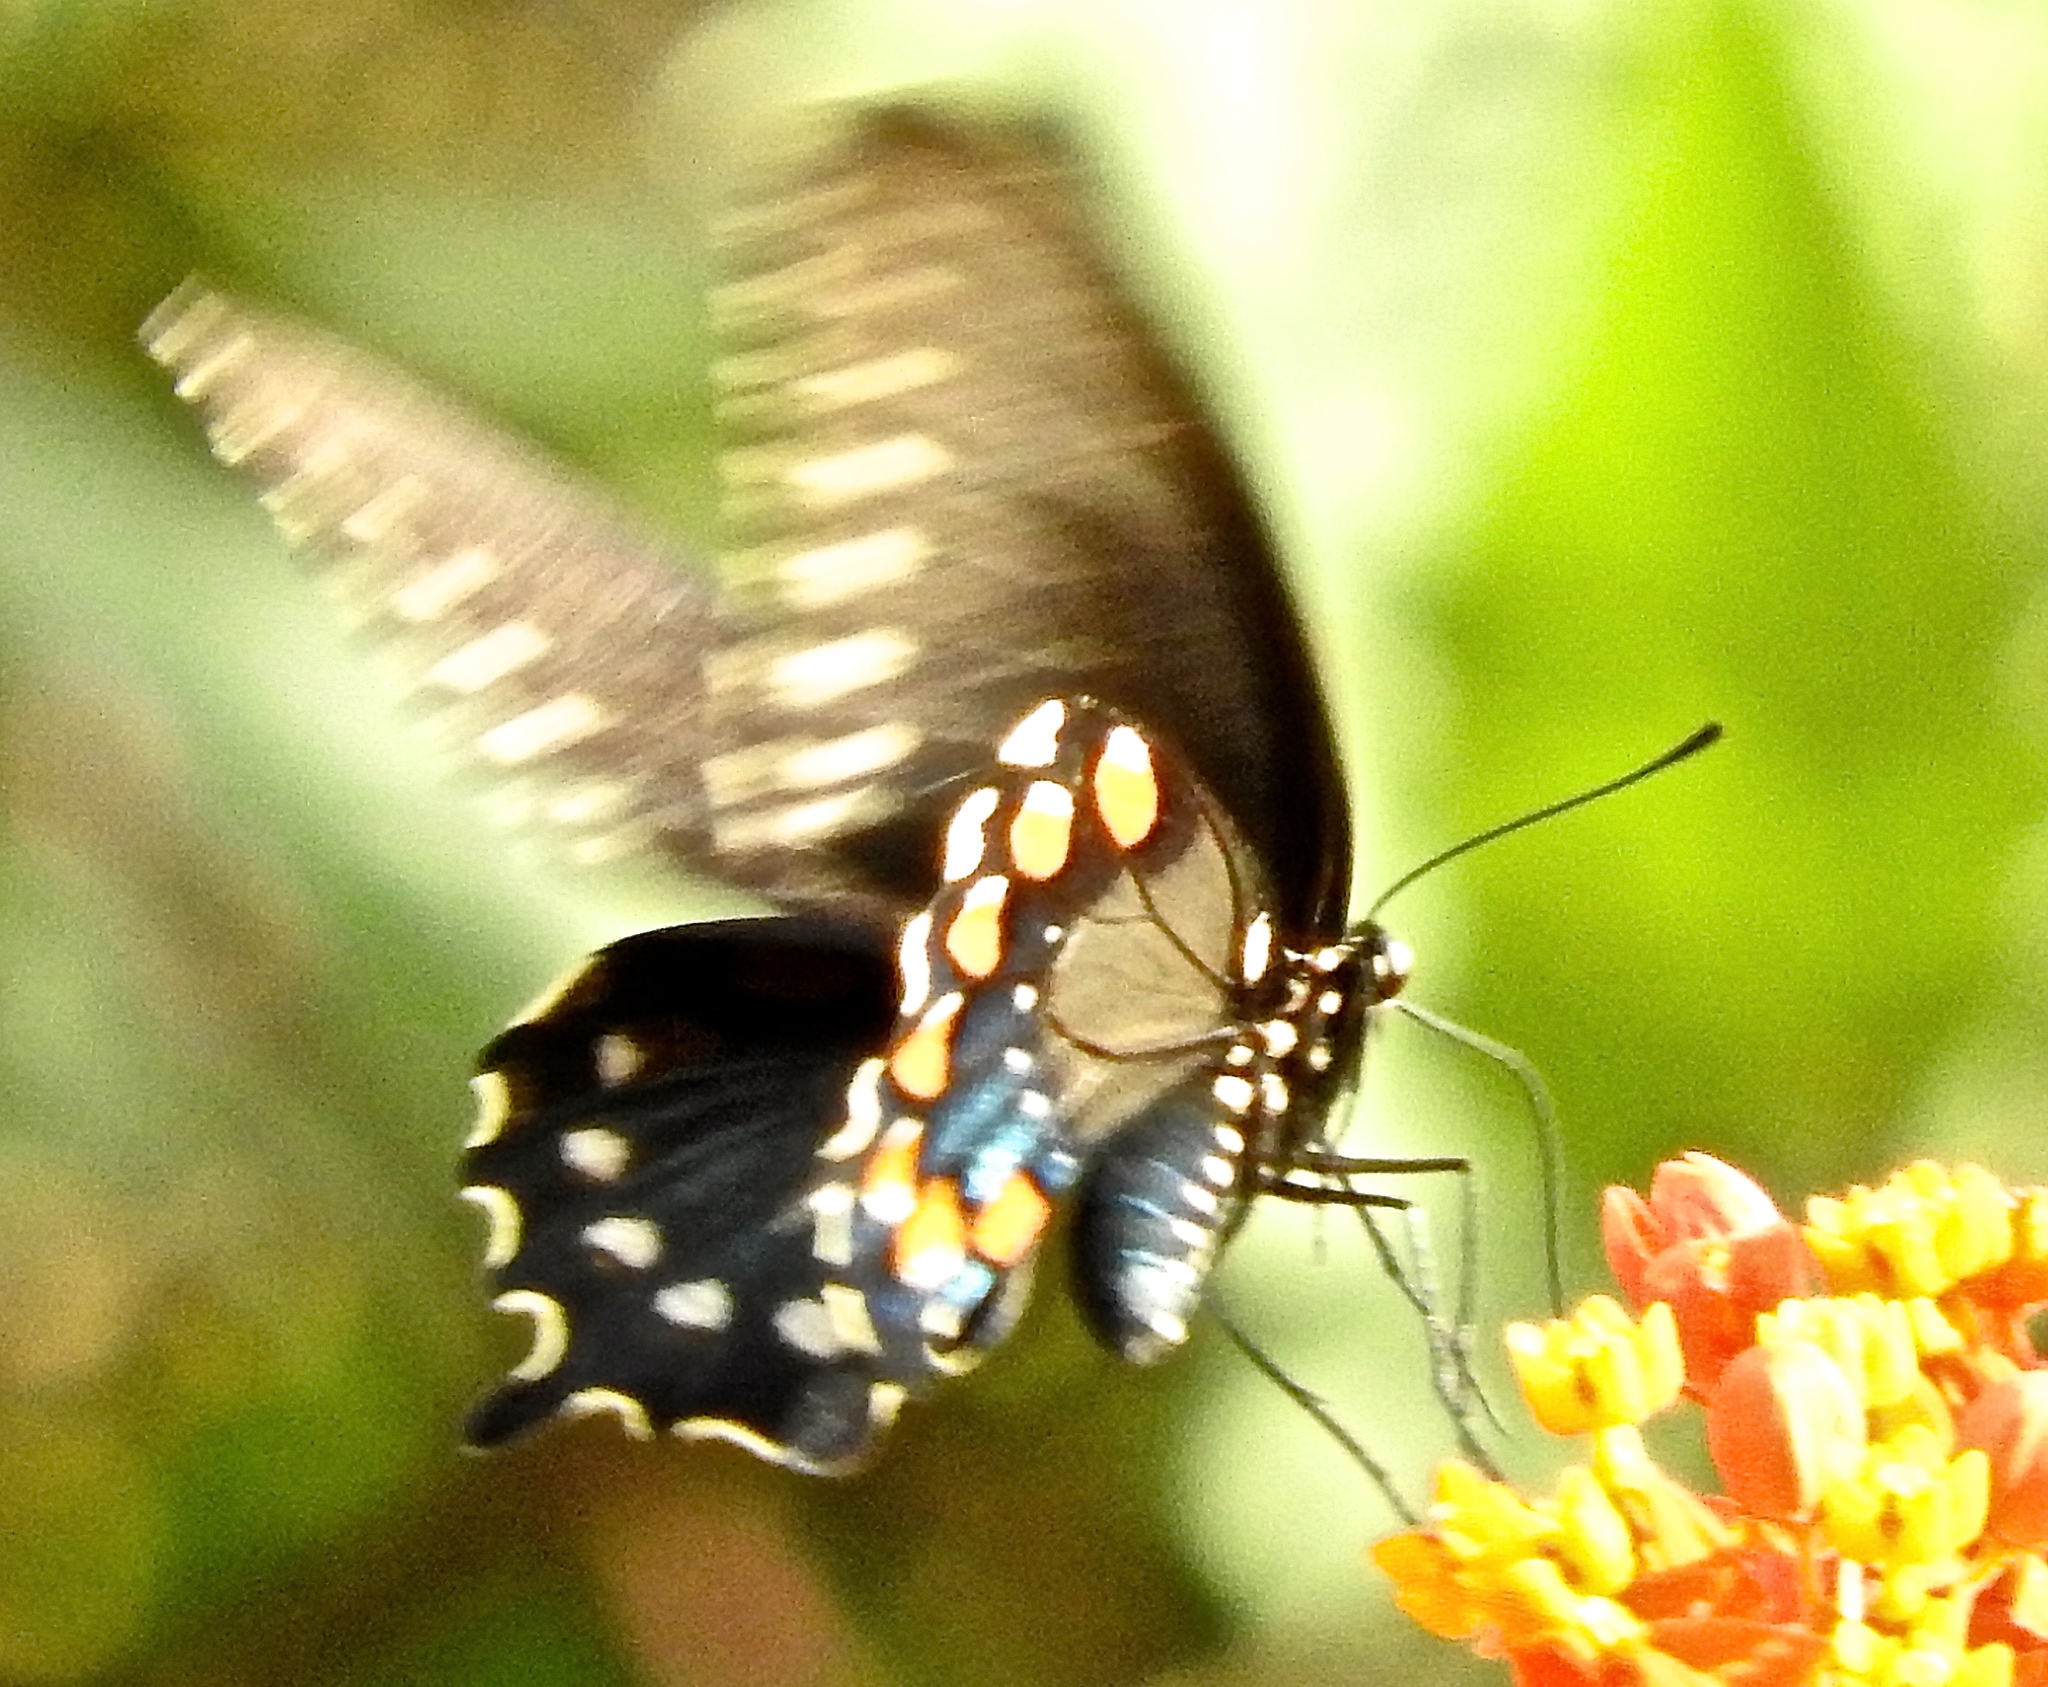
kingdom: Animalia
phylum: Arthropoda
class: Insecta
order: Lepidoptera
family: Papilionidae
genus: Battus
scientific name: Battus philenor
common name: Pipevine swallowtail
